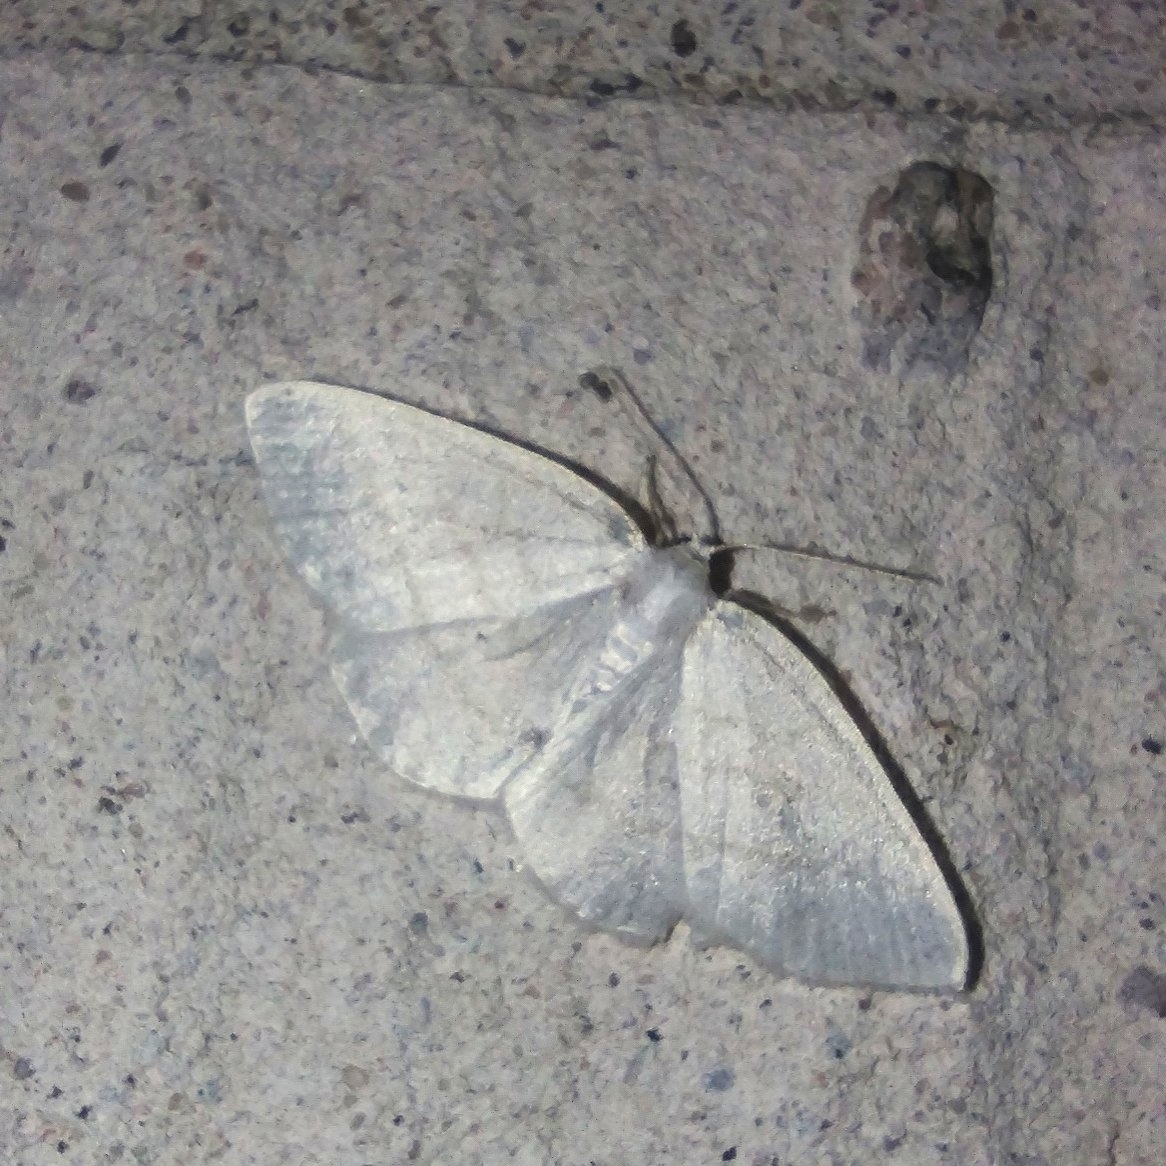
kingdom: Animalia
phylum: Arthropoda
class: Insecta
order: Lepidoptera
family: Geometridae
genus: Cabera
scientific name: Cabera pusaria
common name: Common white wave
